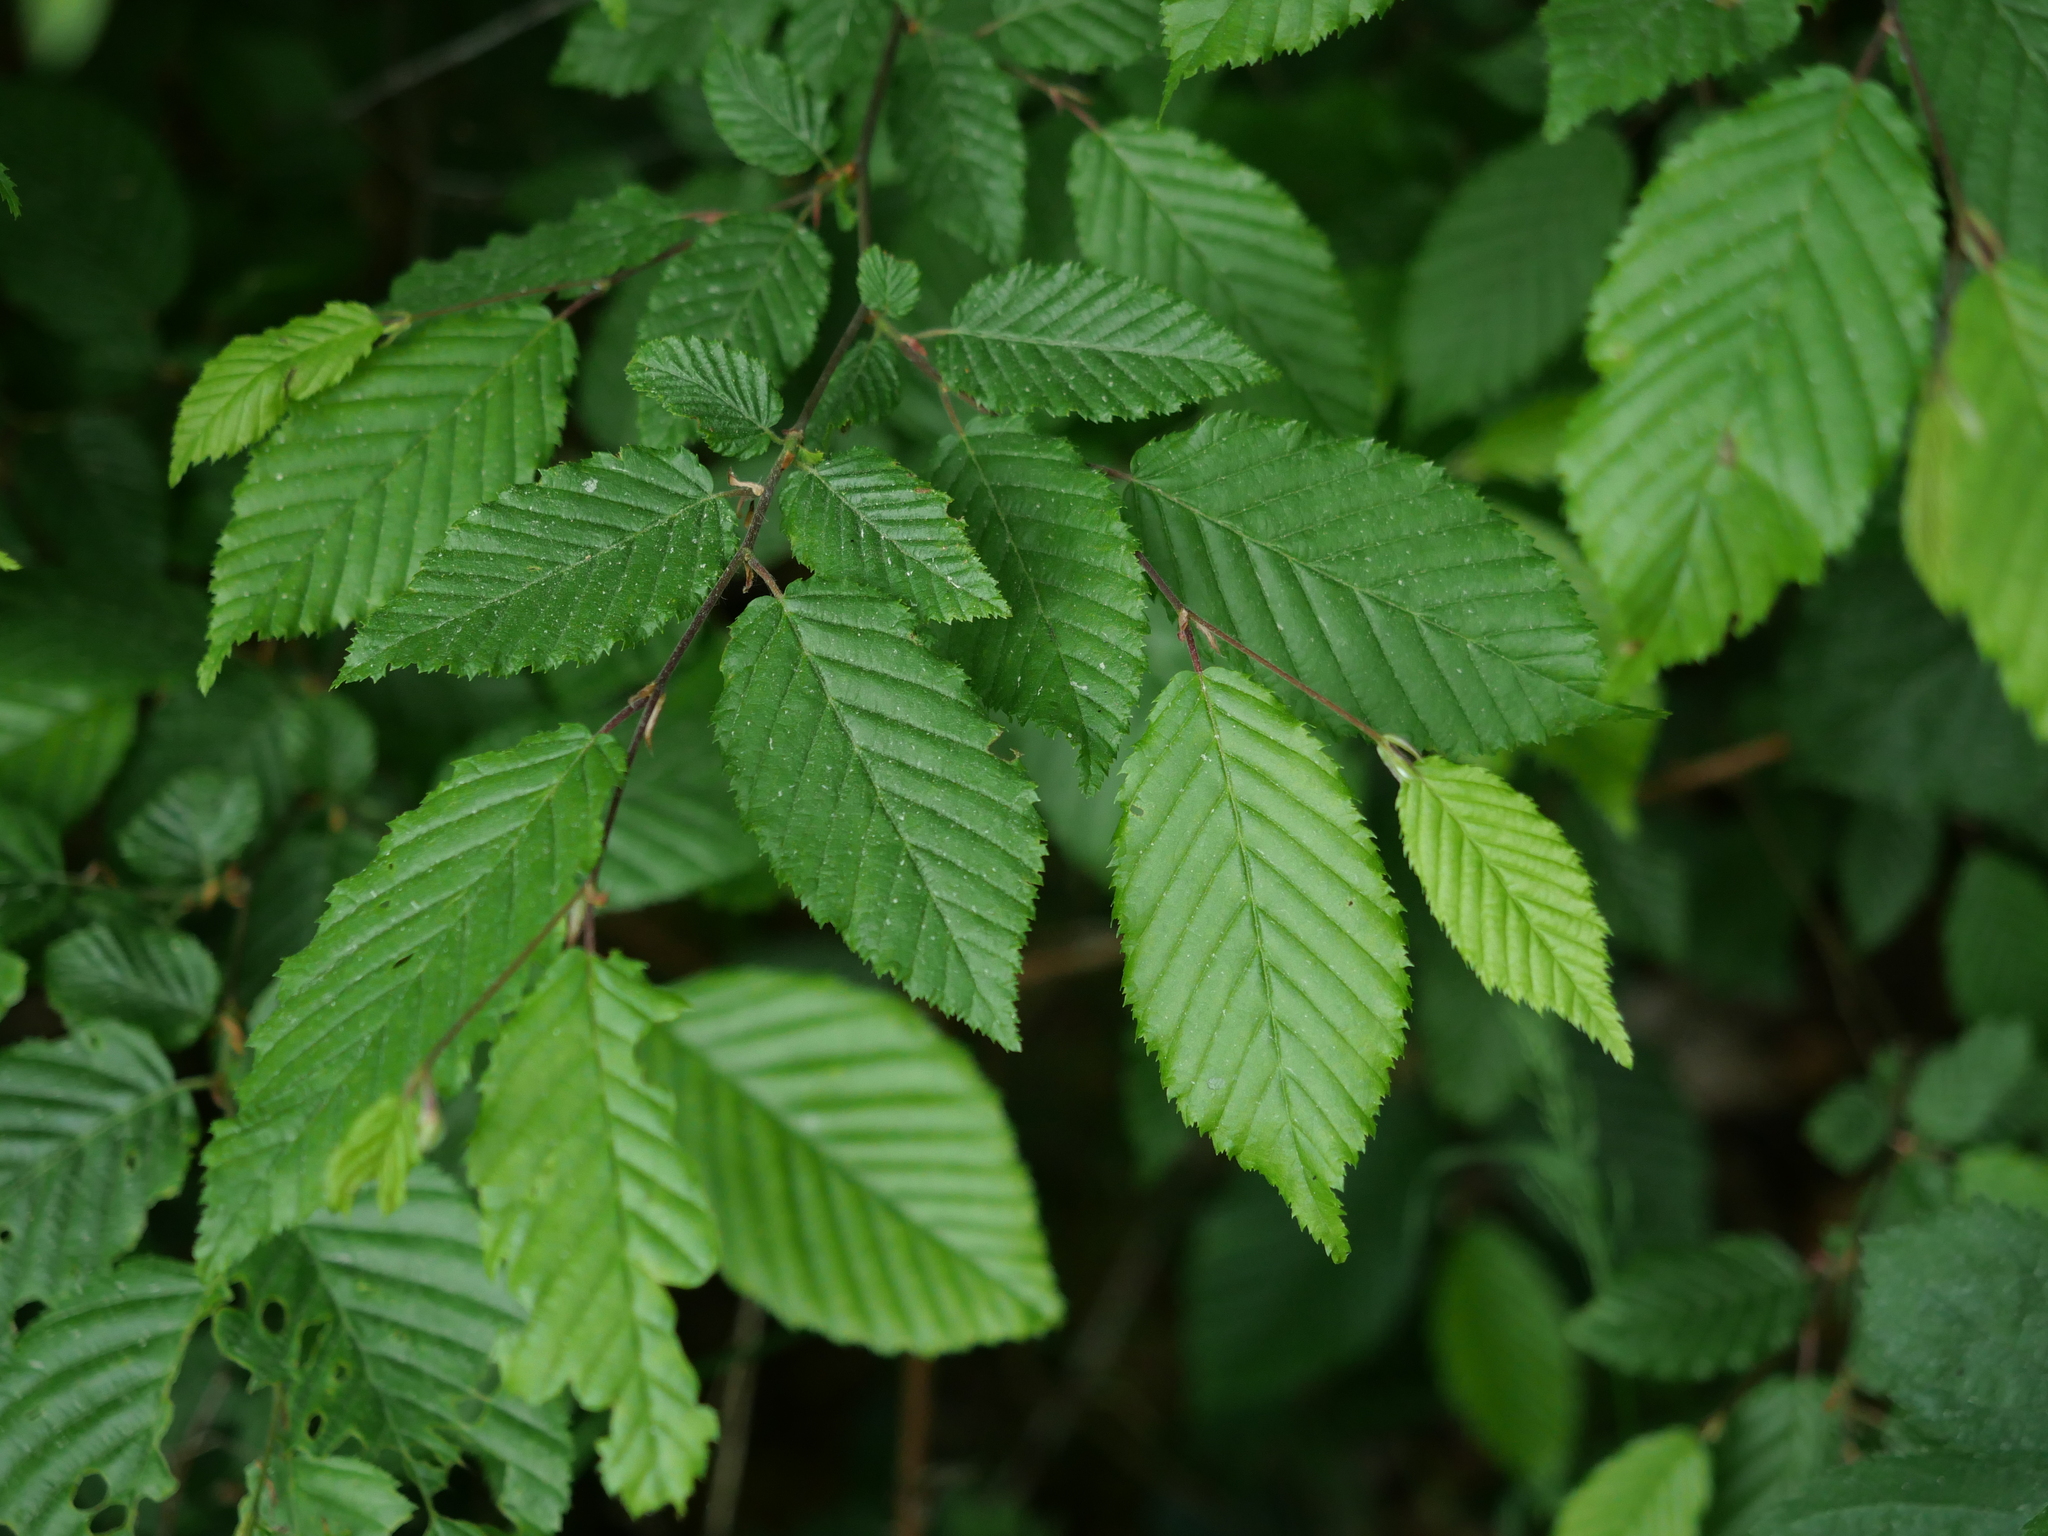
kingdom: Plantae
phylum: Tracheophyta
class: Magnoliopsida
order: Fagales
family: Betulaceae
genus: Carpinus
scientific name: Carpinus betulus
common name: Hornbeam
